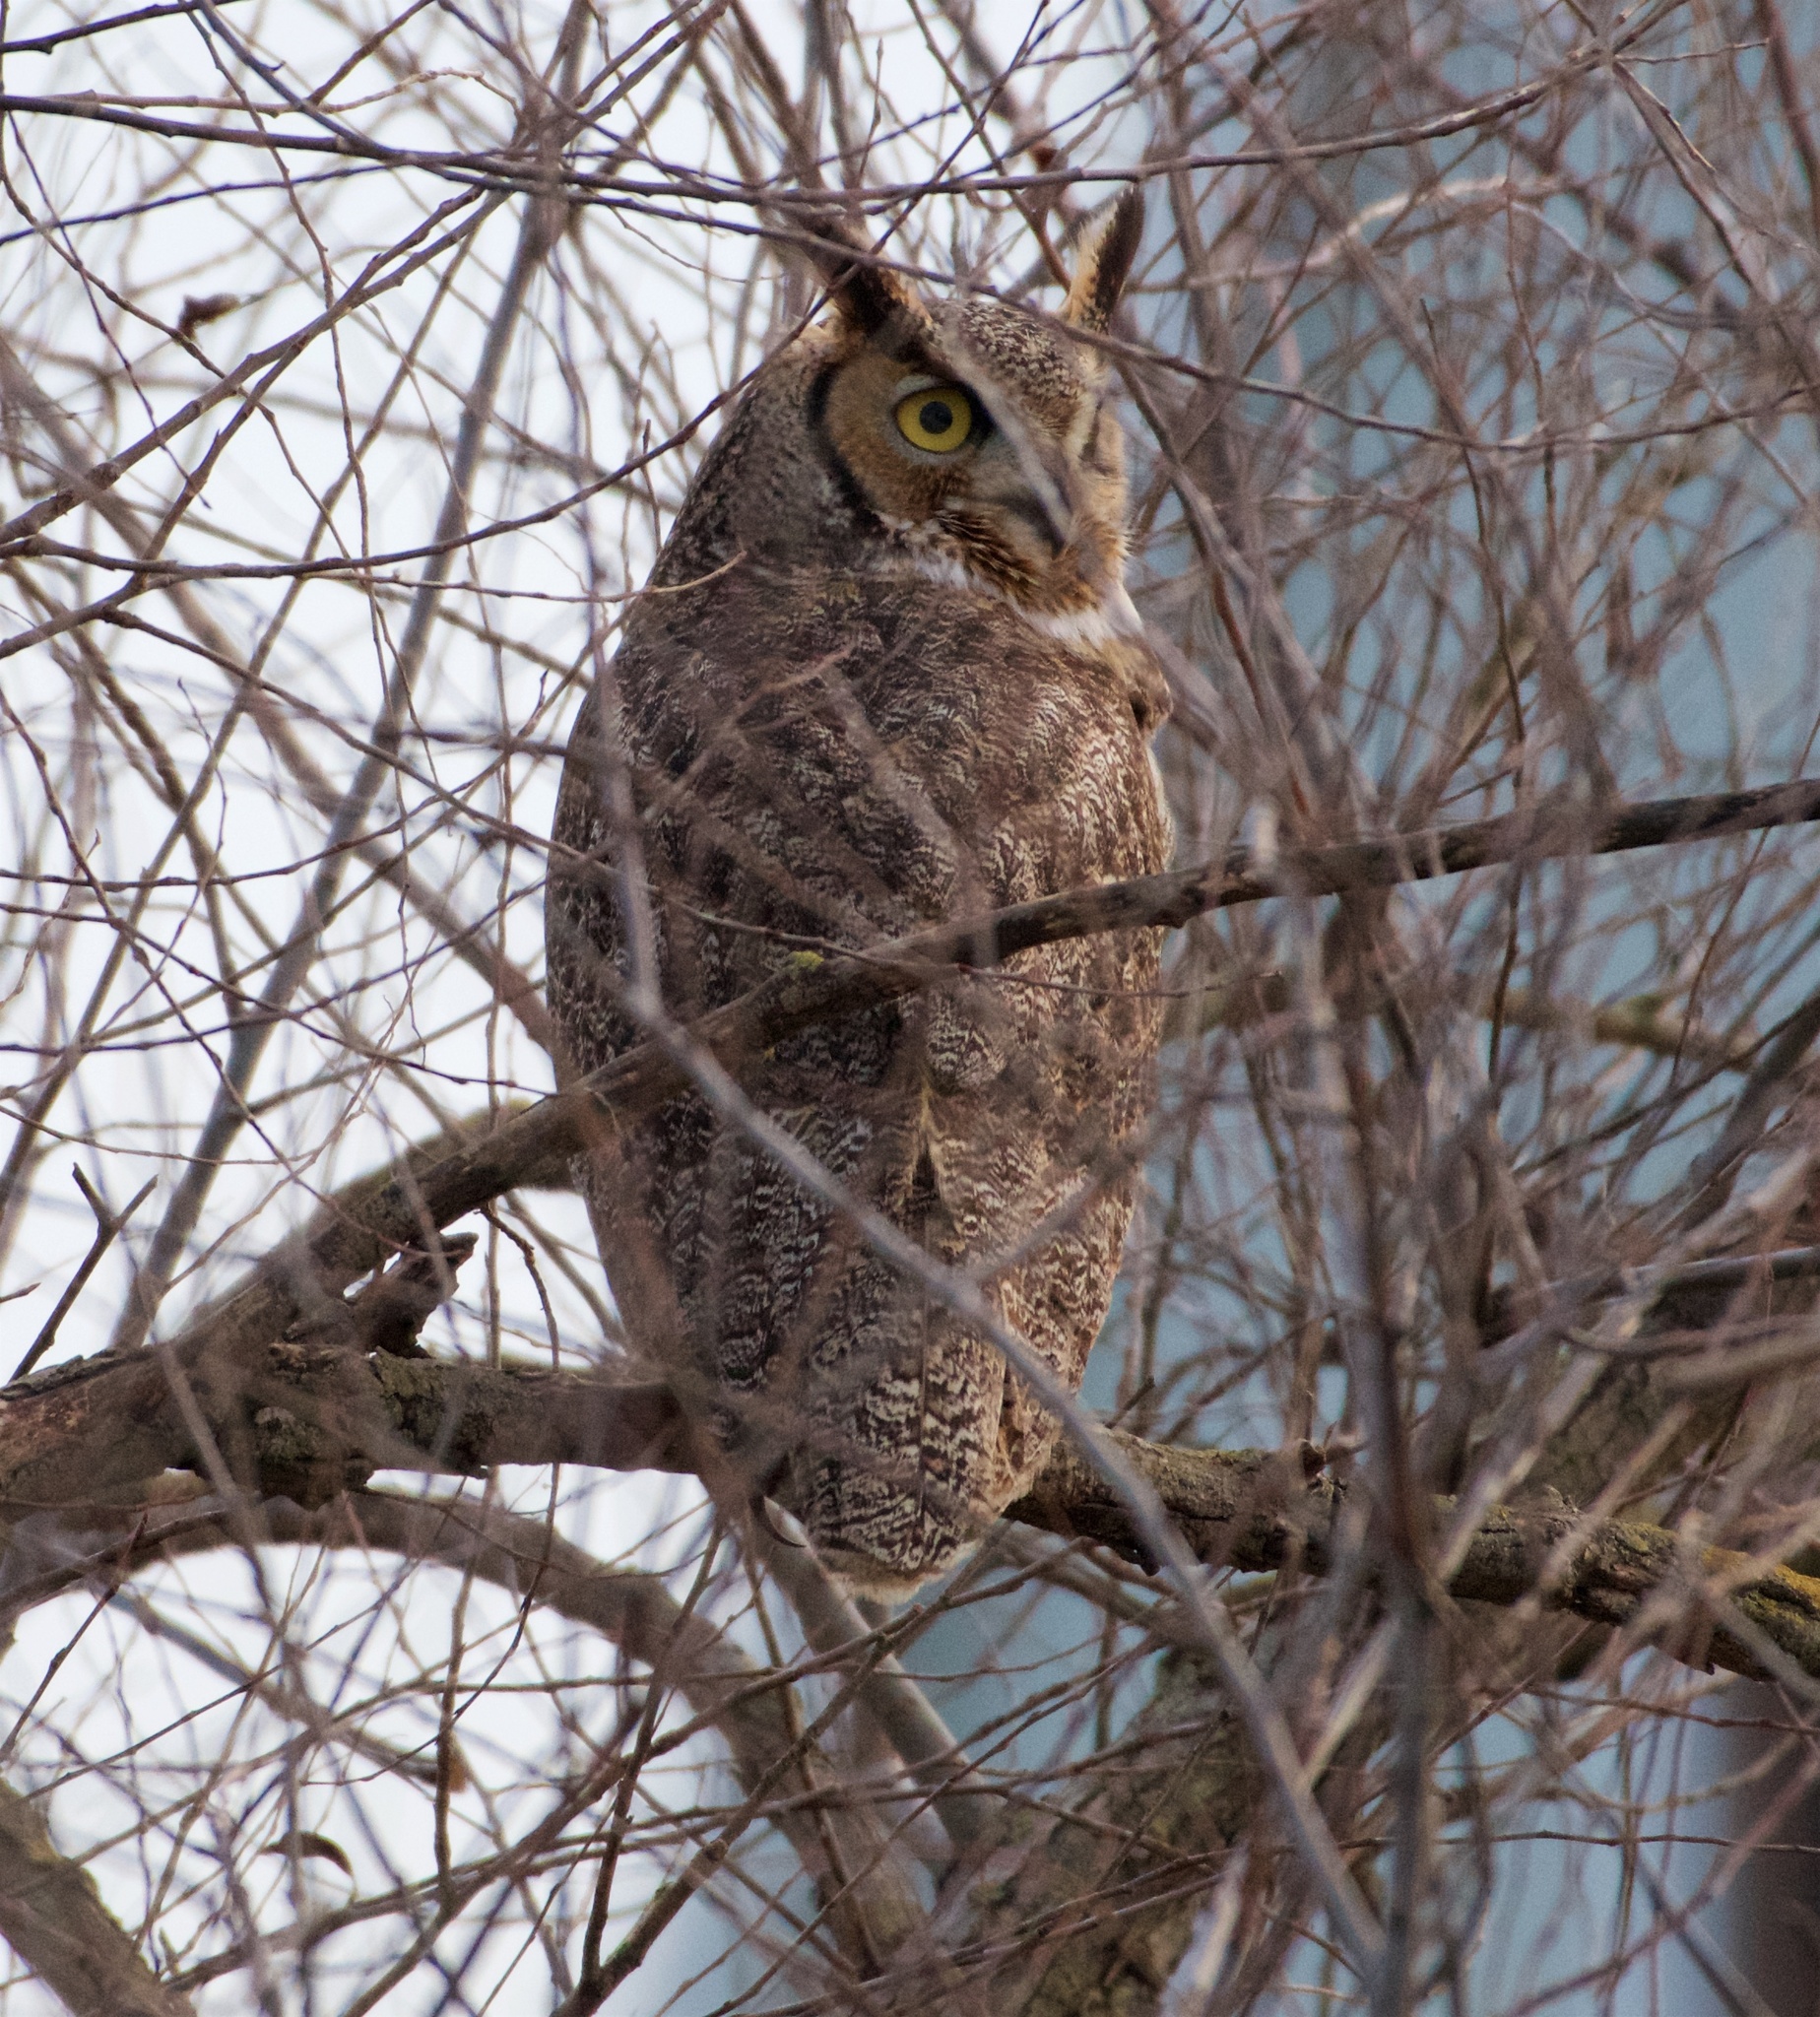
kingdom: Animalia
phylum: Chordata
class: Aves
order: Strigiformes
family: Strigidae
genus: Bubo
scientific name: Bubo virginianus
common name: Great horned owl
